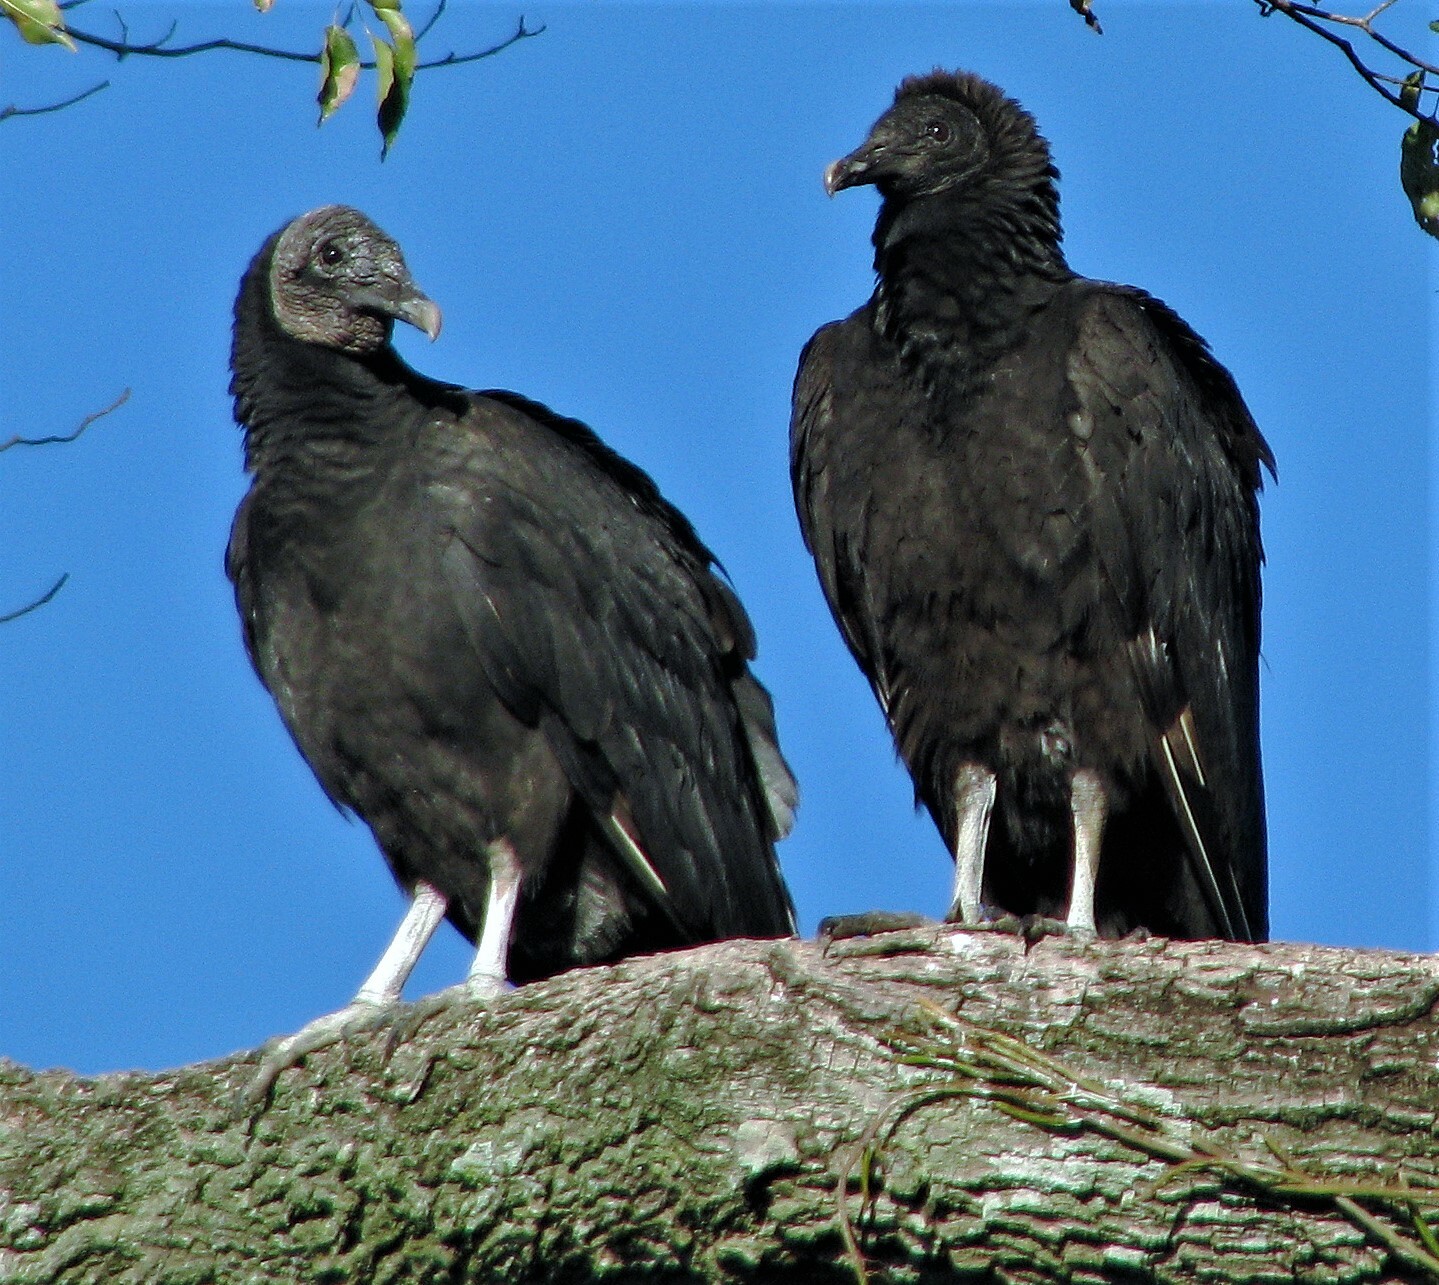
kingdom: Animalia
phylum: Chordata
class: Aves
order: Accipitriformes
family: Cathartidae
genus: Coragyps
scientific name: Coragyps atratus
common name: Black vulture
